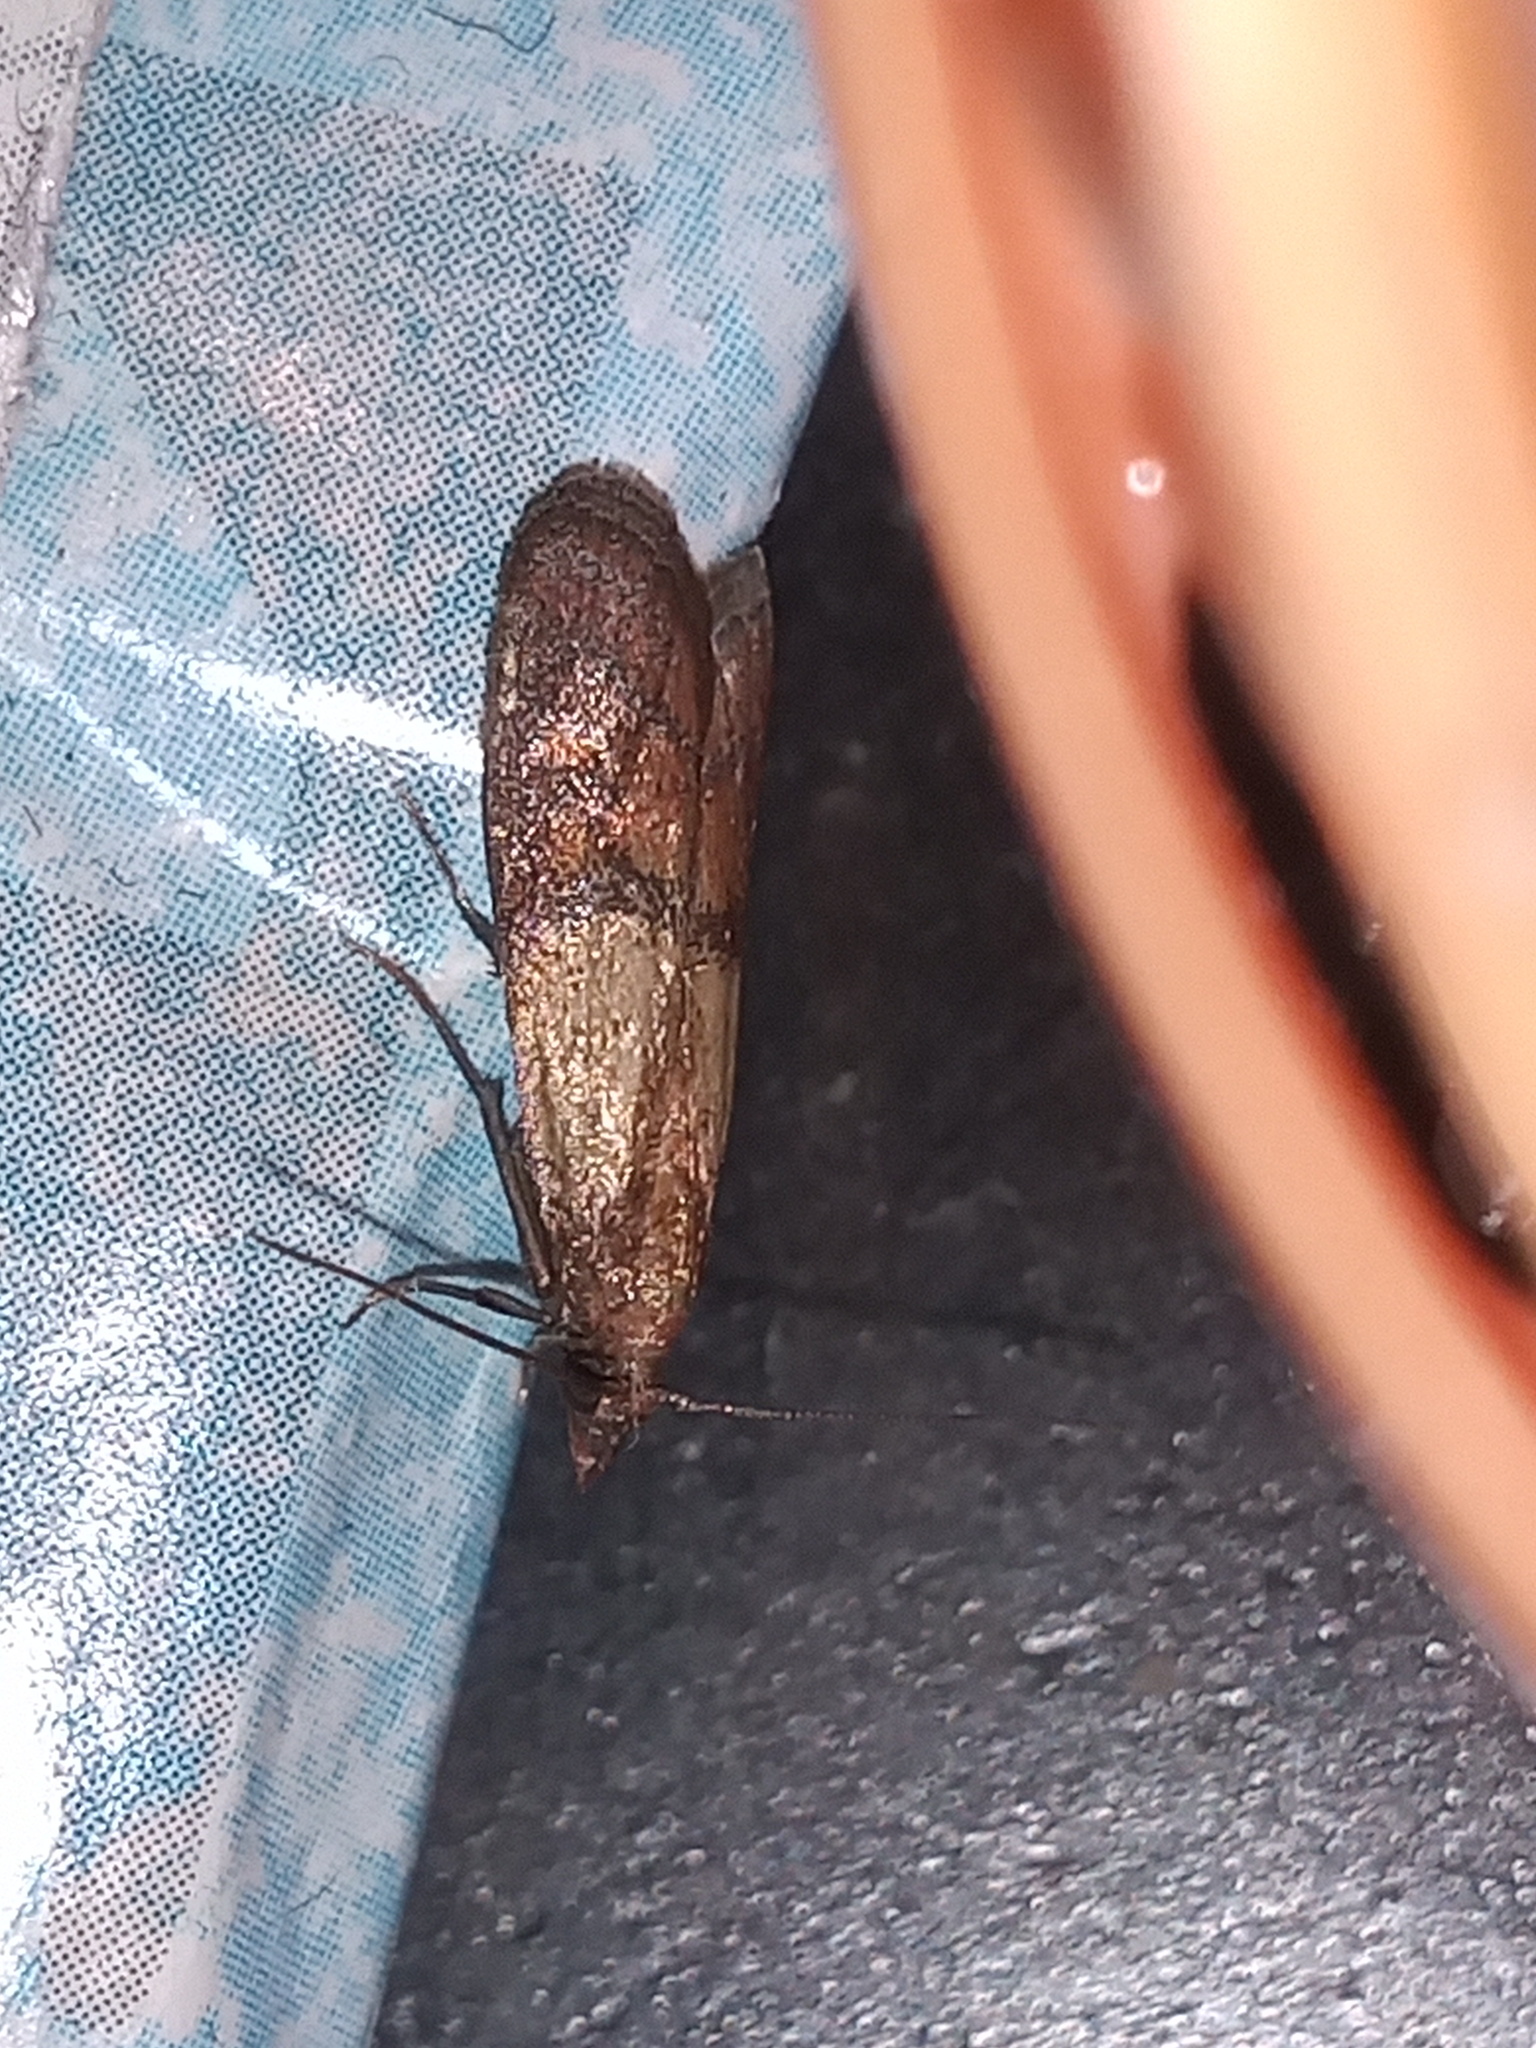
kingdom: Animalia
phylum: Arthropoda
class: Insecta
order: Lepidoptera
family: Pyralidae
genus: Plodia
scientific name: Plodia interpunctella
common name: Indian meal moth
